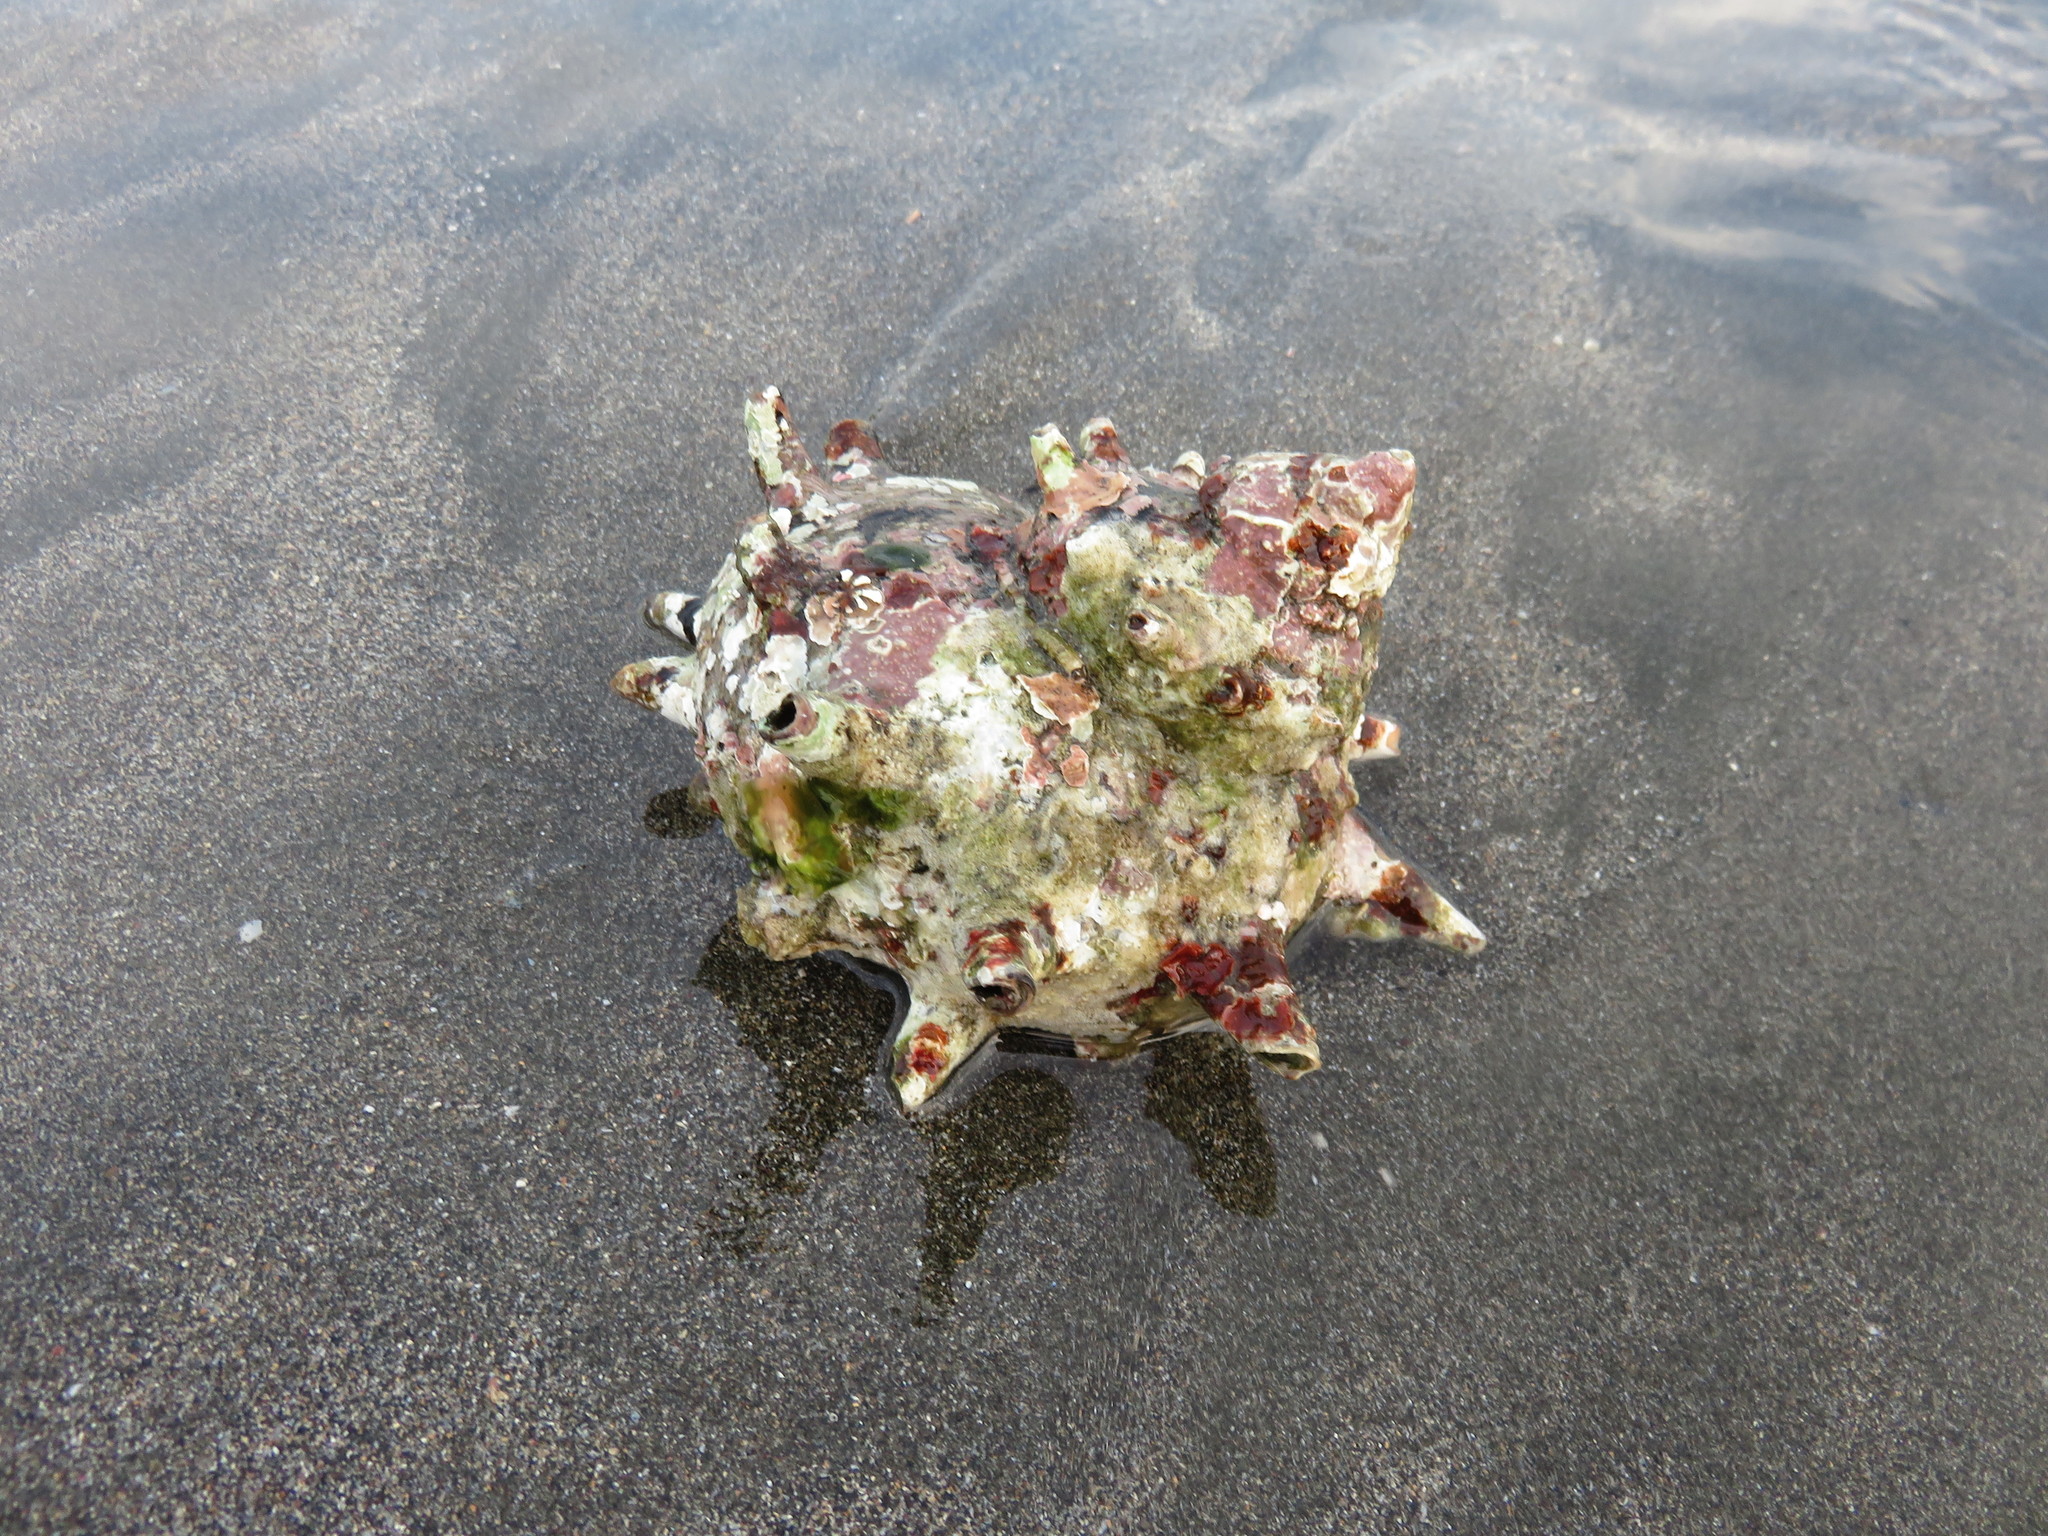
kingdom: Animalia
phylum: Mollusca
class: Gastropoda
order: Trochida
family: Turbinidae
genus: Turbo
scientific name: Turbo sazae
